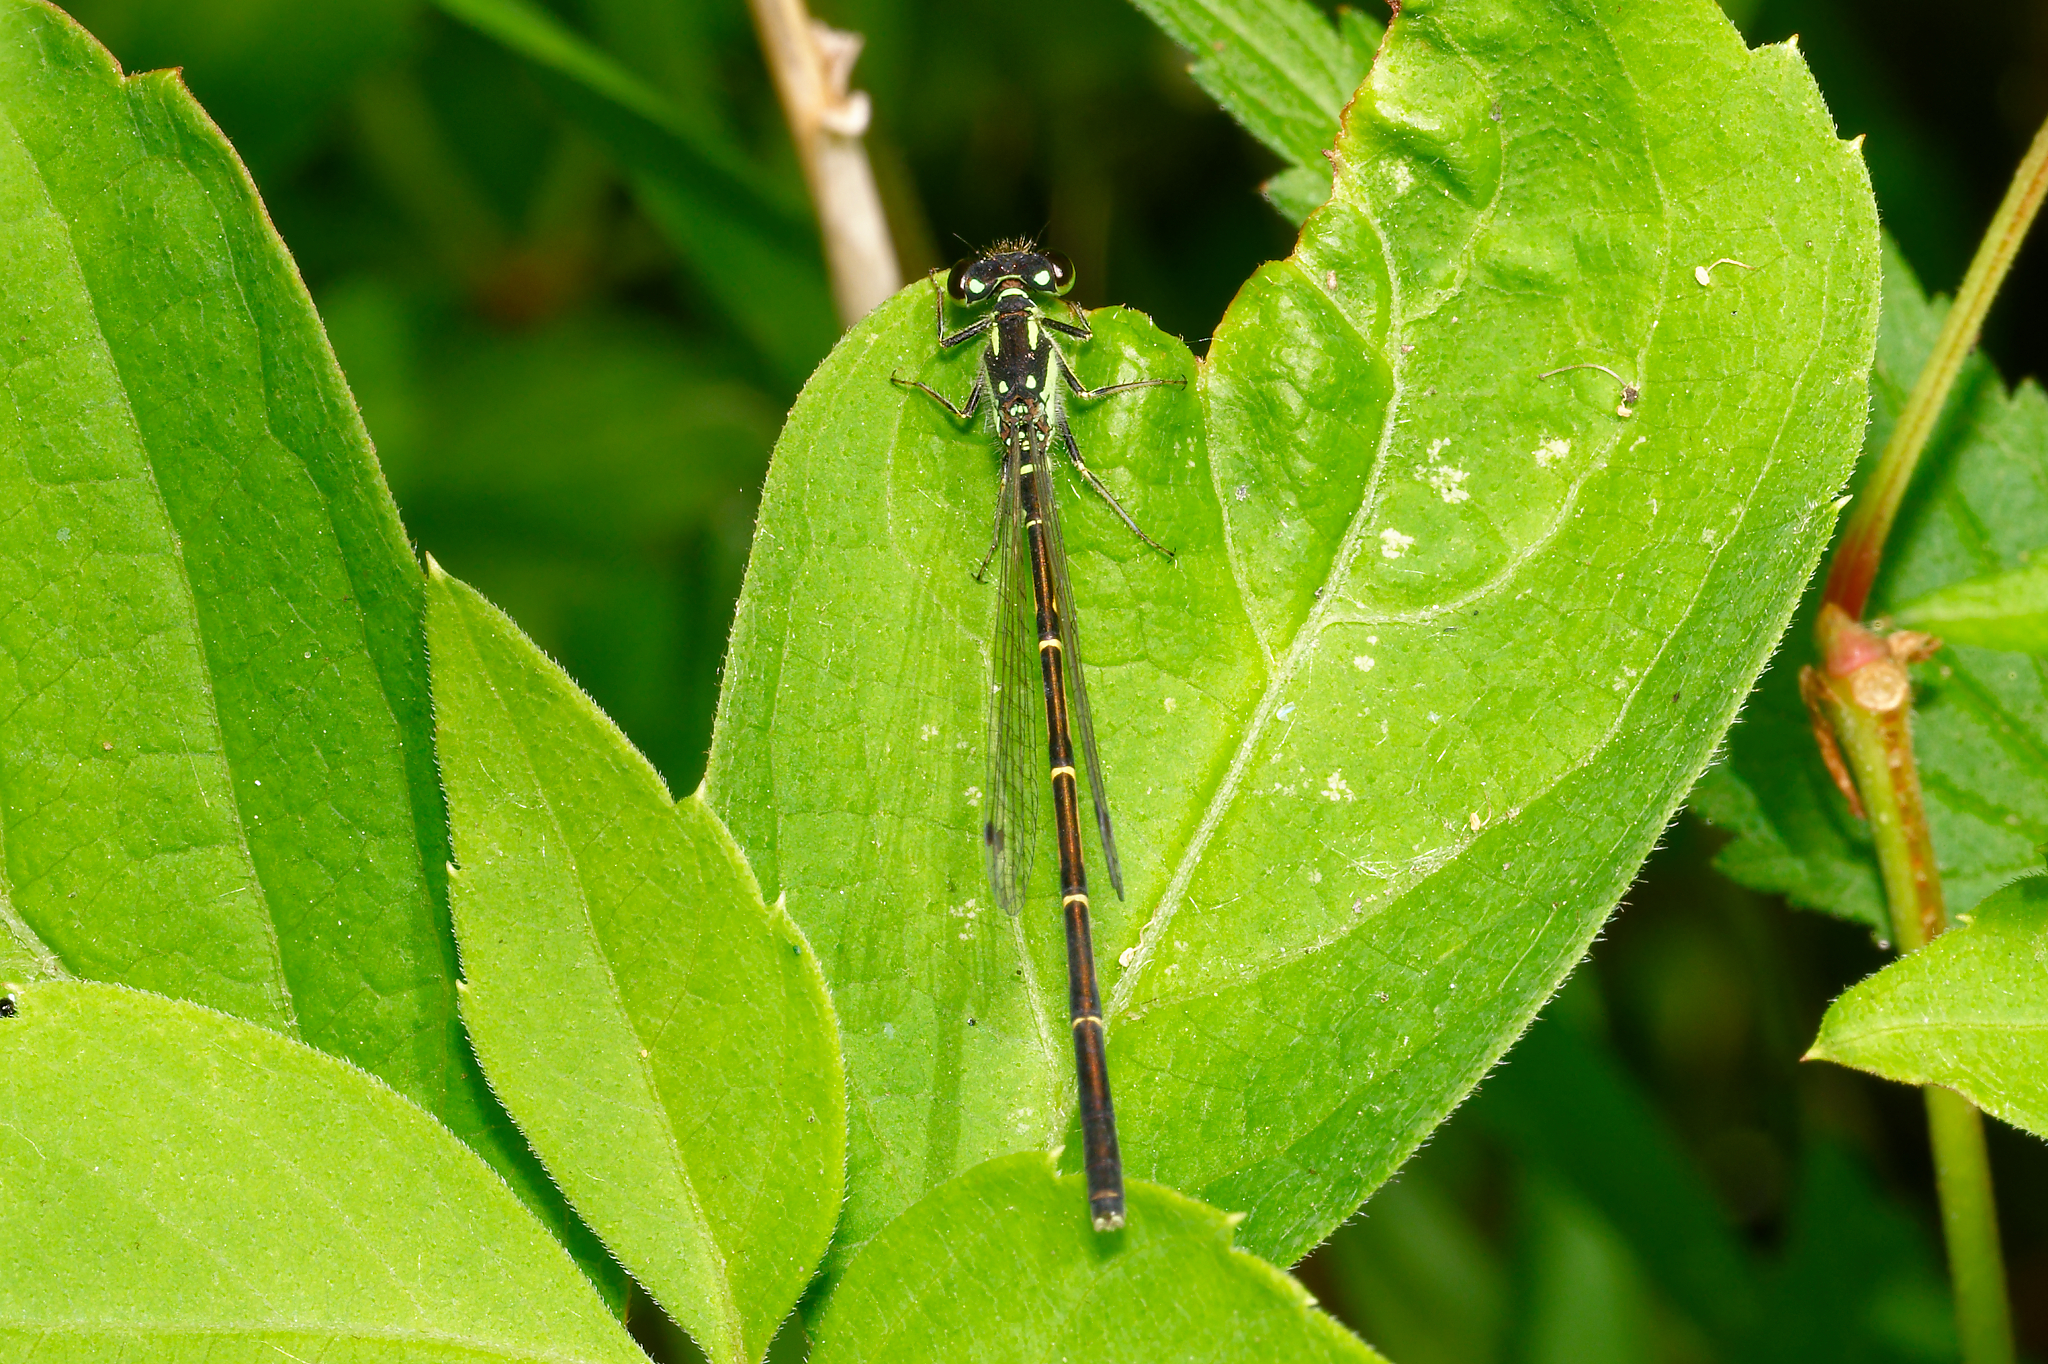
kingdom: Animalia
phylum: Arthropoda
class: Insecta
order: Odonata
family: Coenagrionidae
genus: Ischnura
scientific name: Ischnura posita
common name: Fragile forktail
